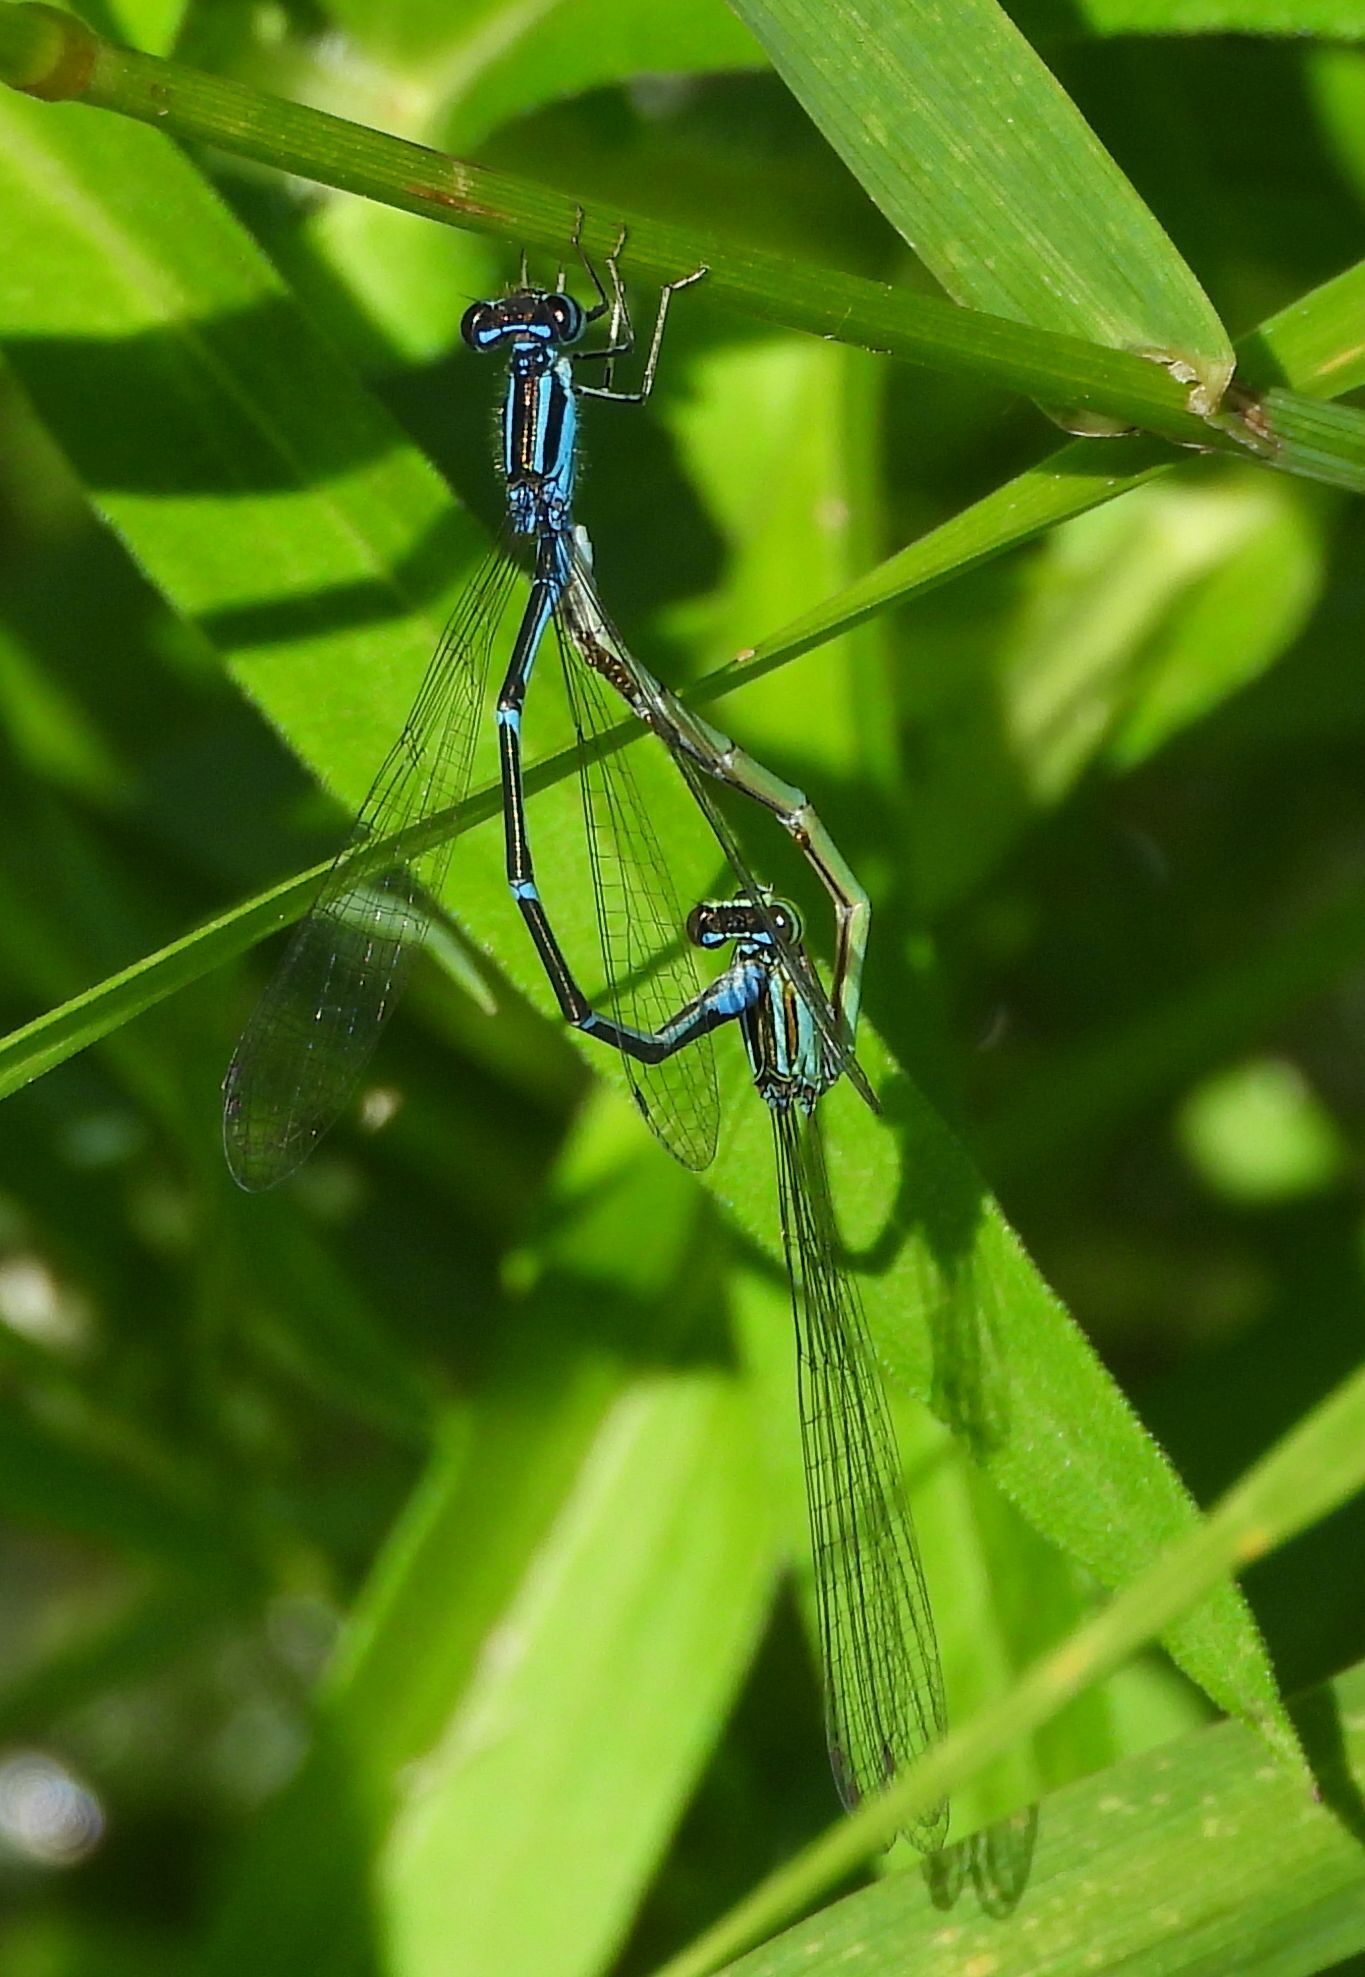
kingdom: Animalia
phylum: Arthropoda
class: Insecta
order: Odonata
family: Coenagrionidae
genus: Enallagma
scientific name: Enallagma exsulans
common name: Stream bluet
